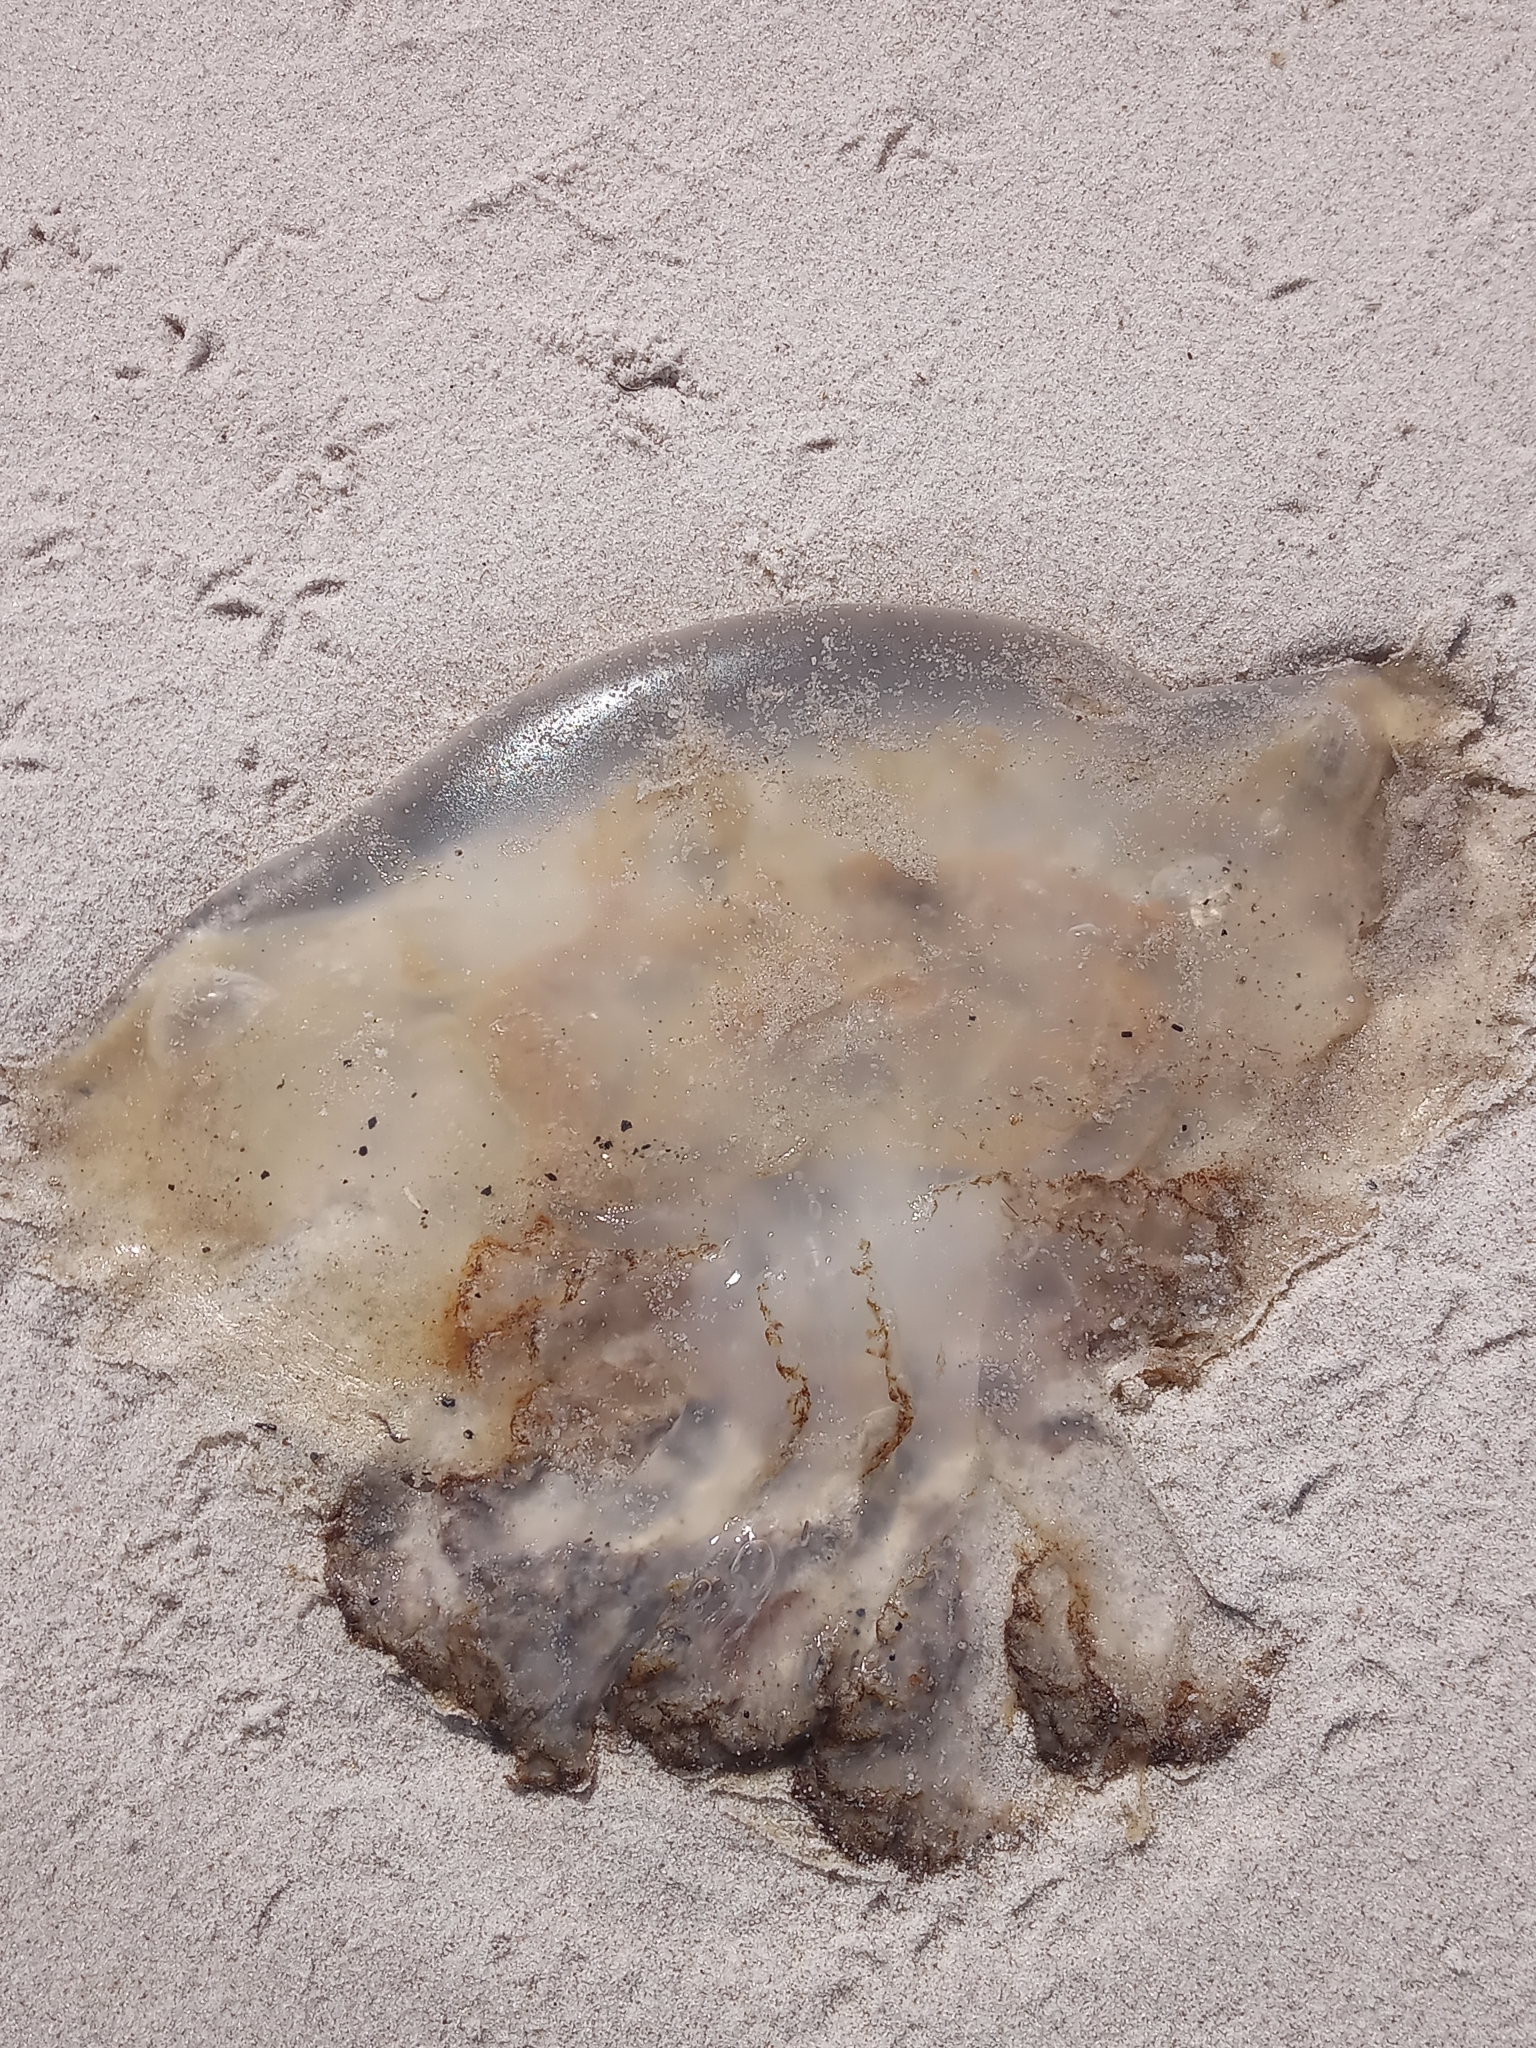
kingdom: Animalia
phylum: Cnidaria
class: Scyphozoa
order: Rhizostomeae
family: Rhizostomatidae
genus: Rhopilema
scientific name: Rhopilema verrilli
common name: Mushroom cap jellyfish
